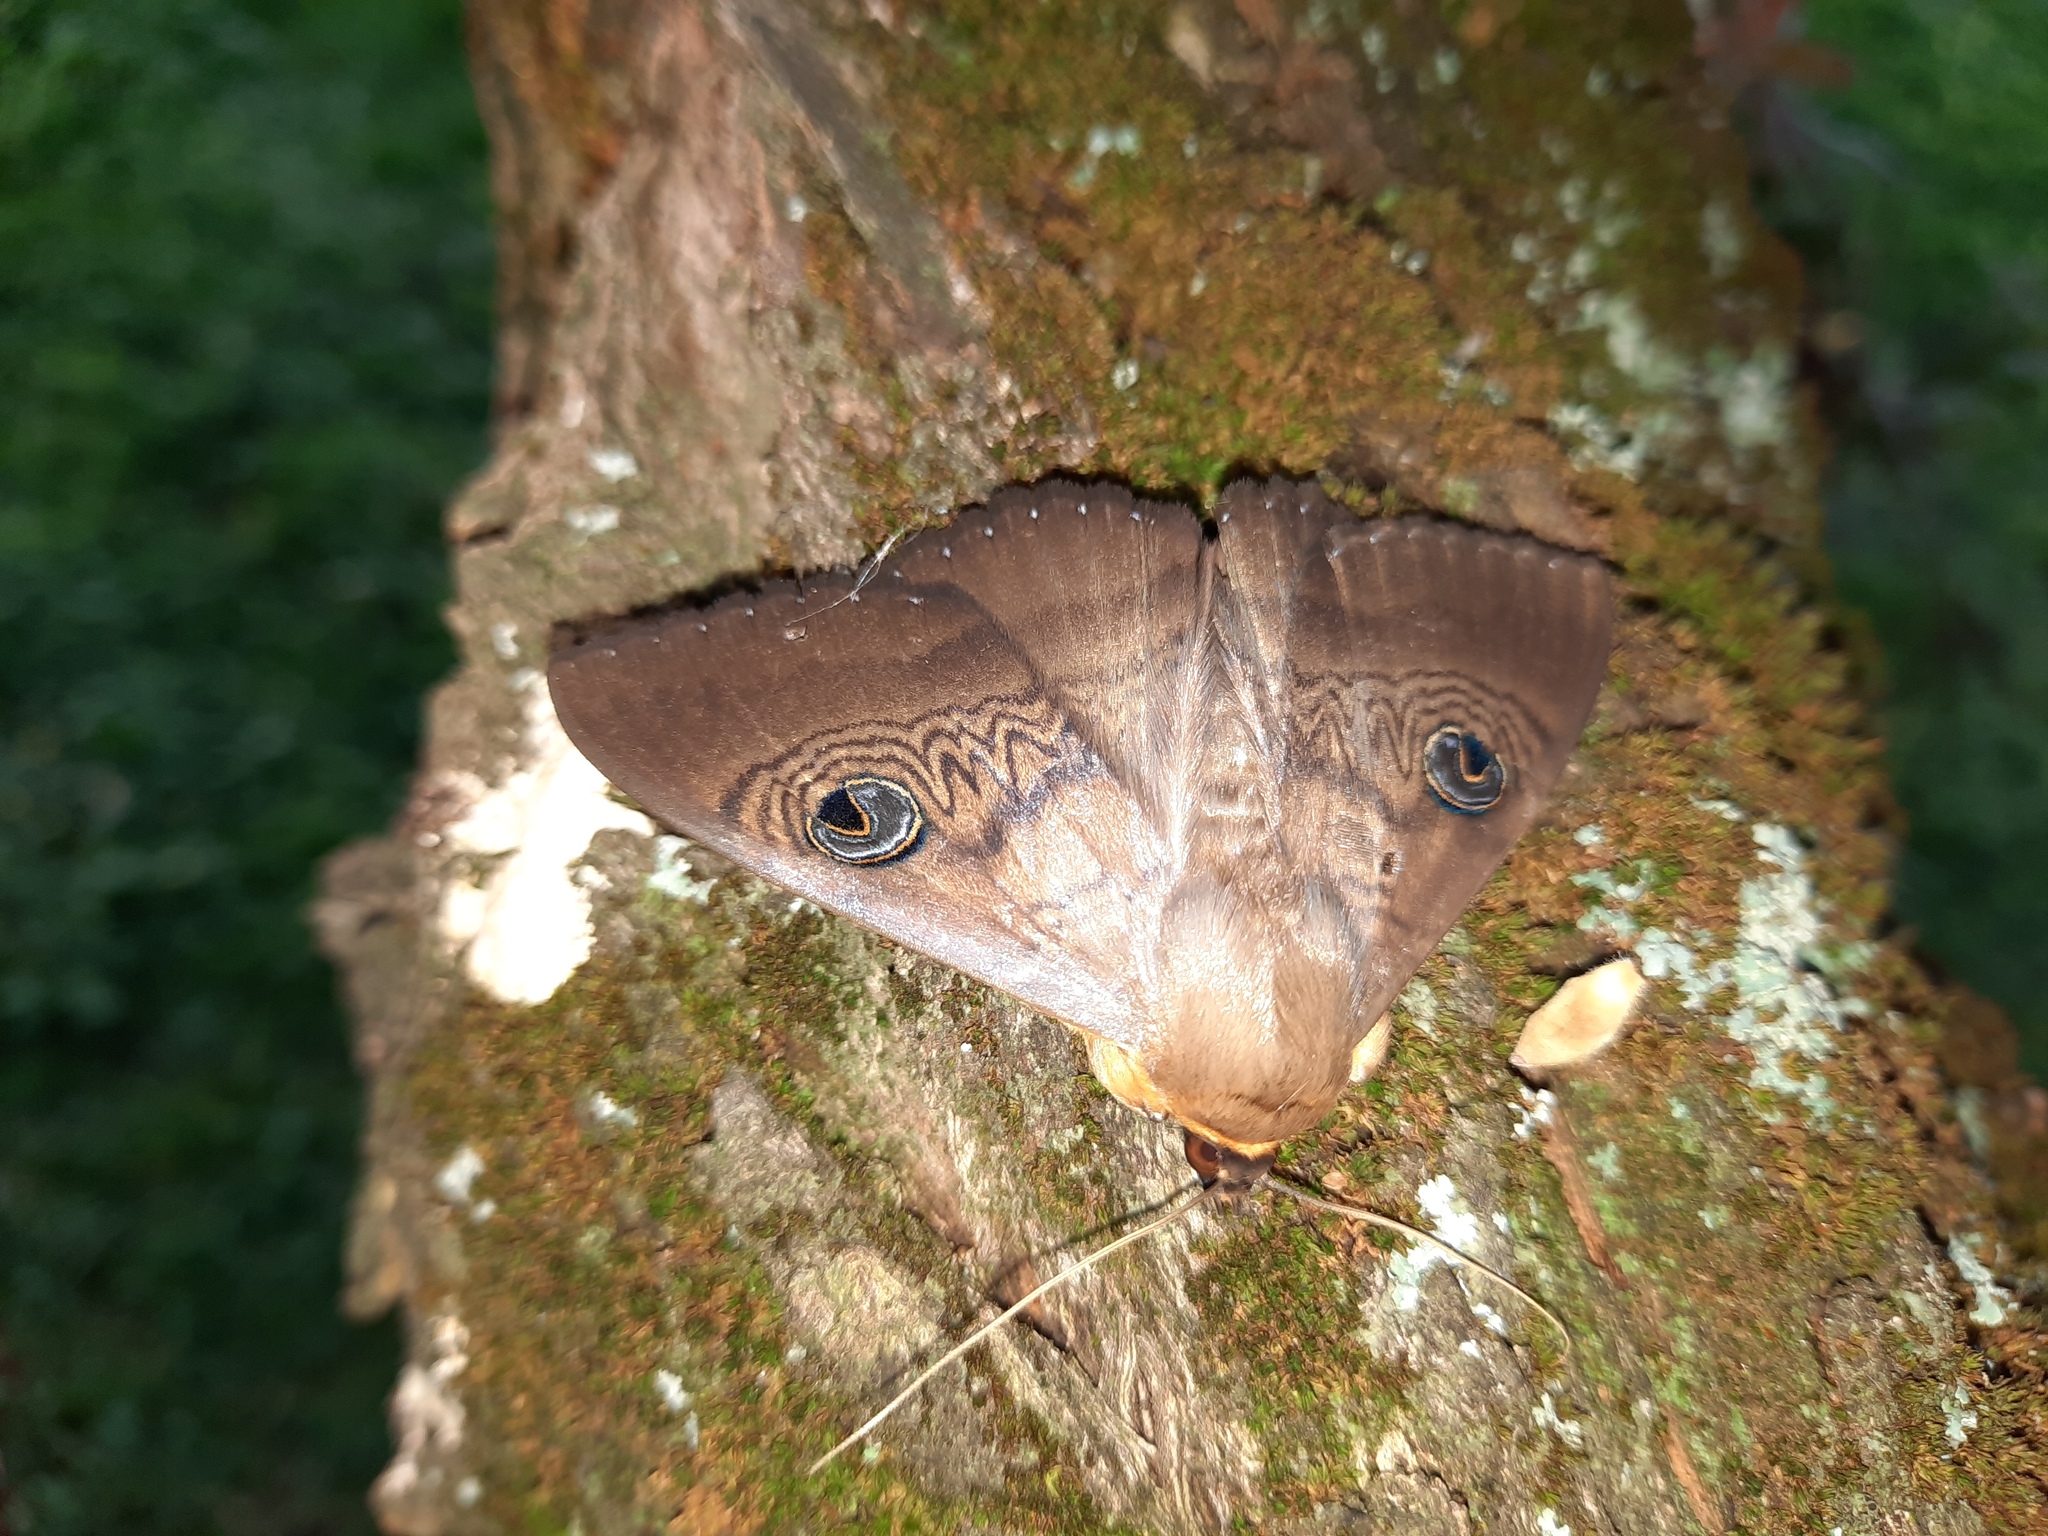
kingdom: Animalia
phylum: Arthropoda
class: Insecta
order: Lepidoptera
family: Erebidae
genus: Dasypodia
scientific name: Dasypodia selenophora
